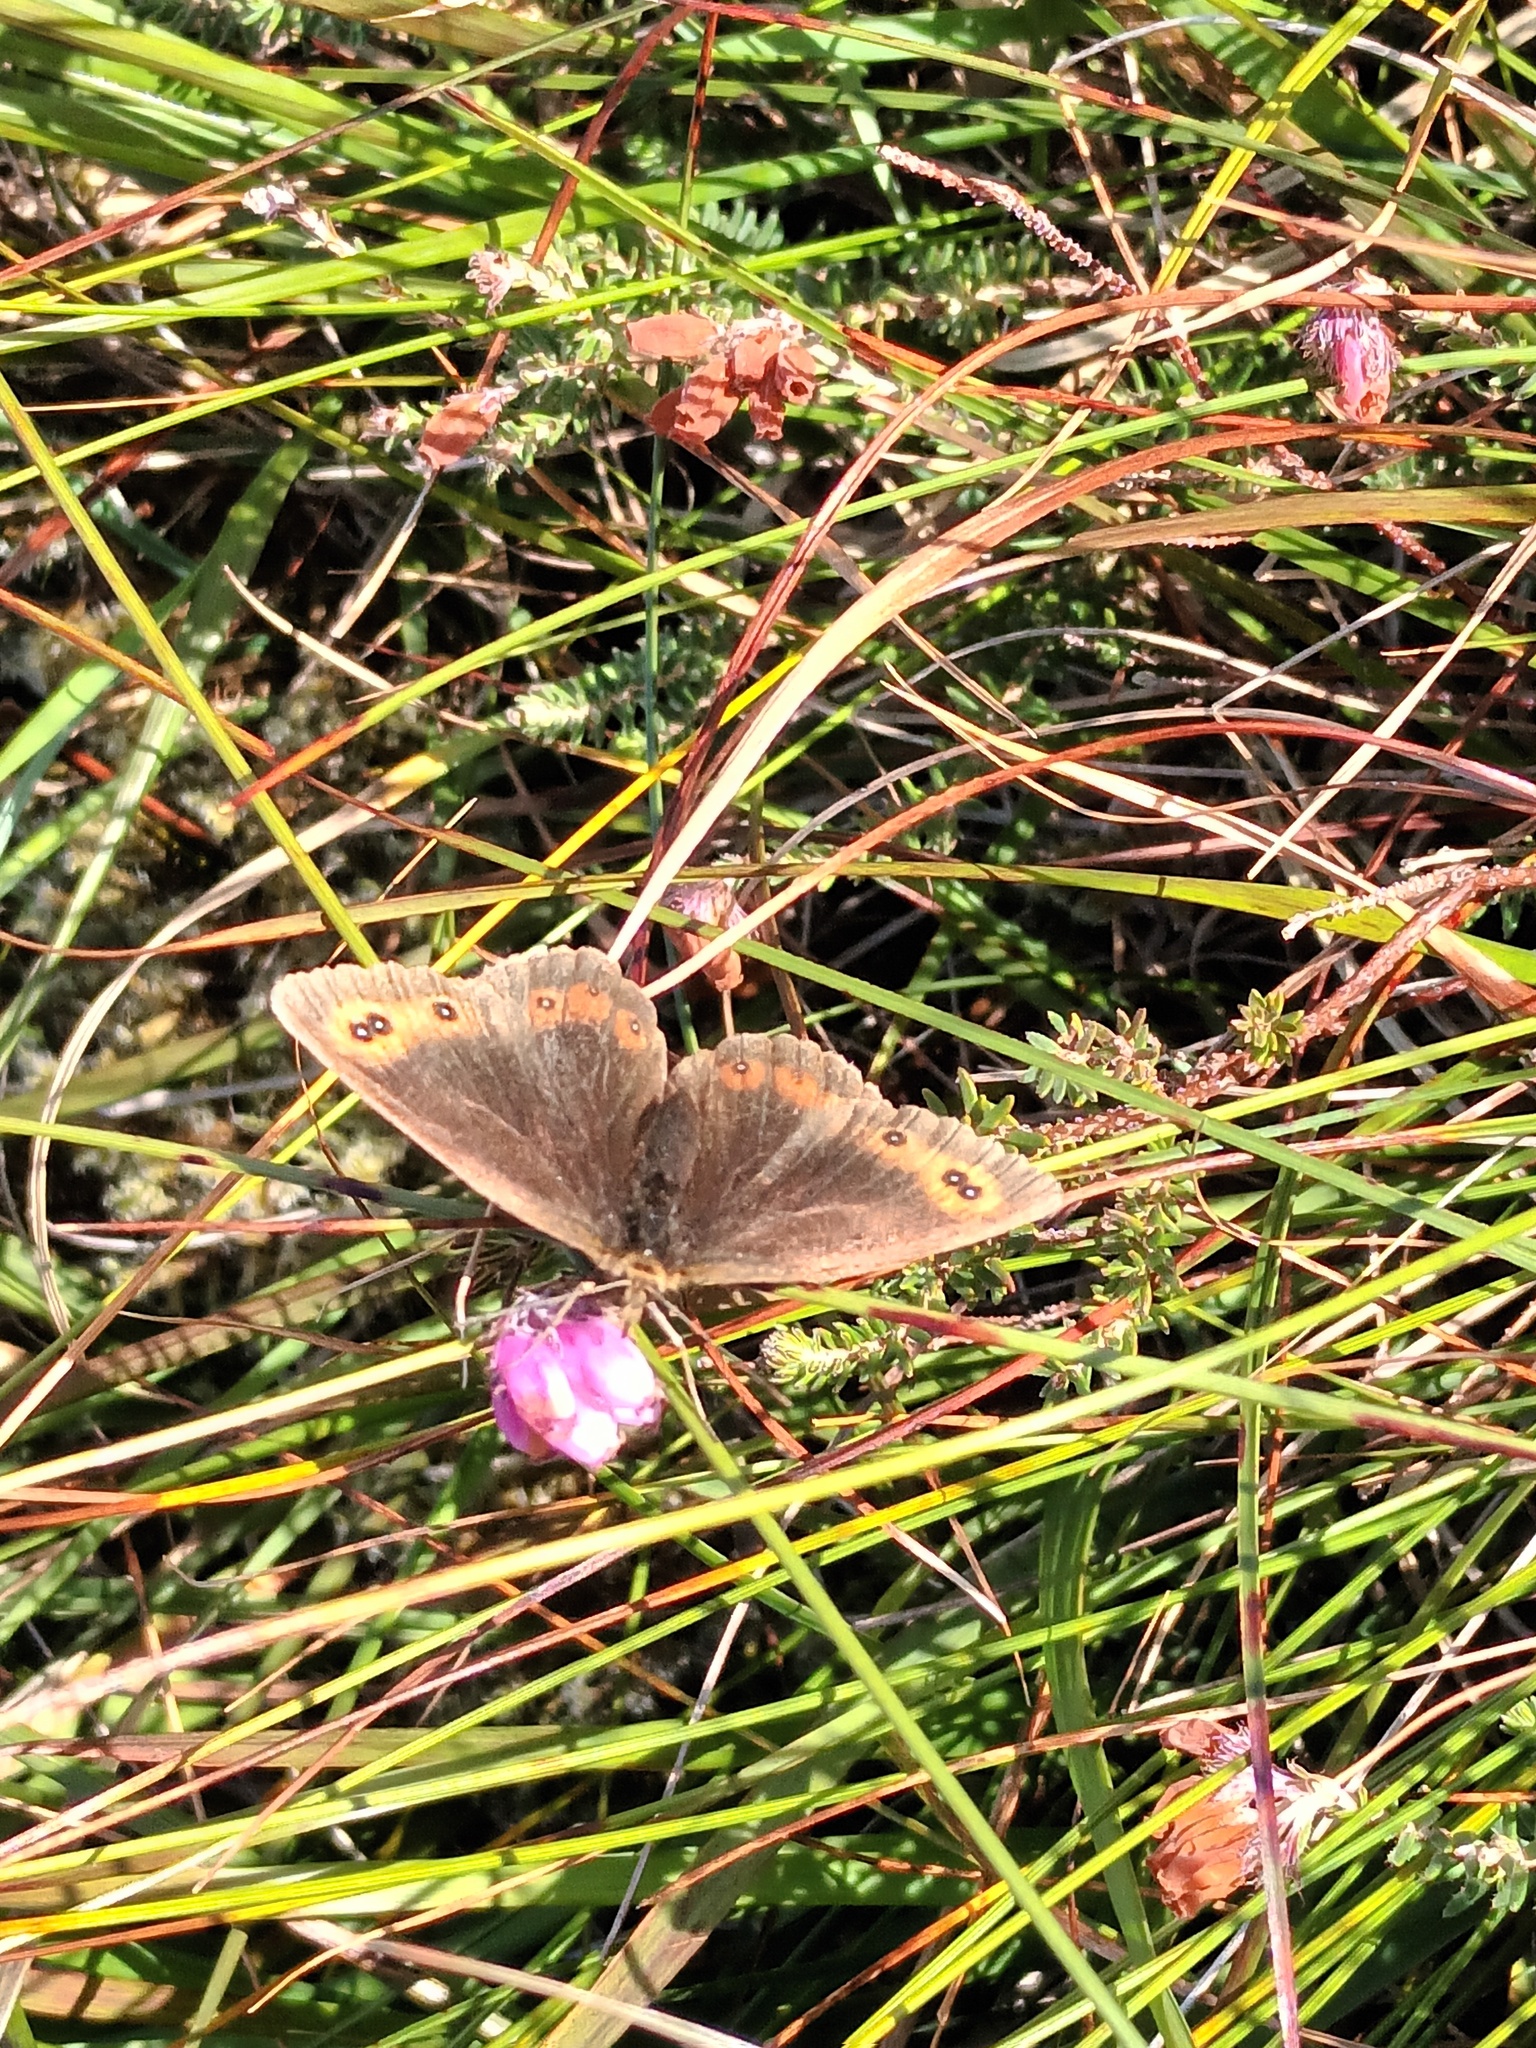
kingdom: Animalia
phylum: Arthropoda
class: Insecta
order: Lepidoptera
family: Nymphalidae
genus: Erebia
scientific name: Erebia aethiops
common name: Scotch argus
